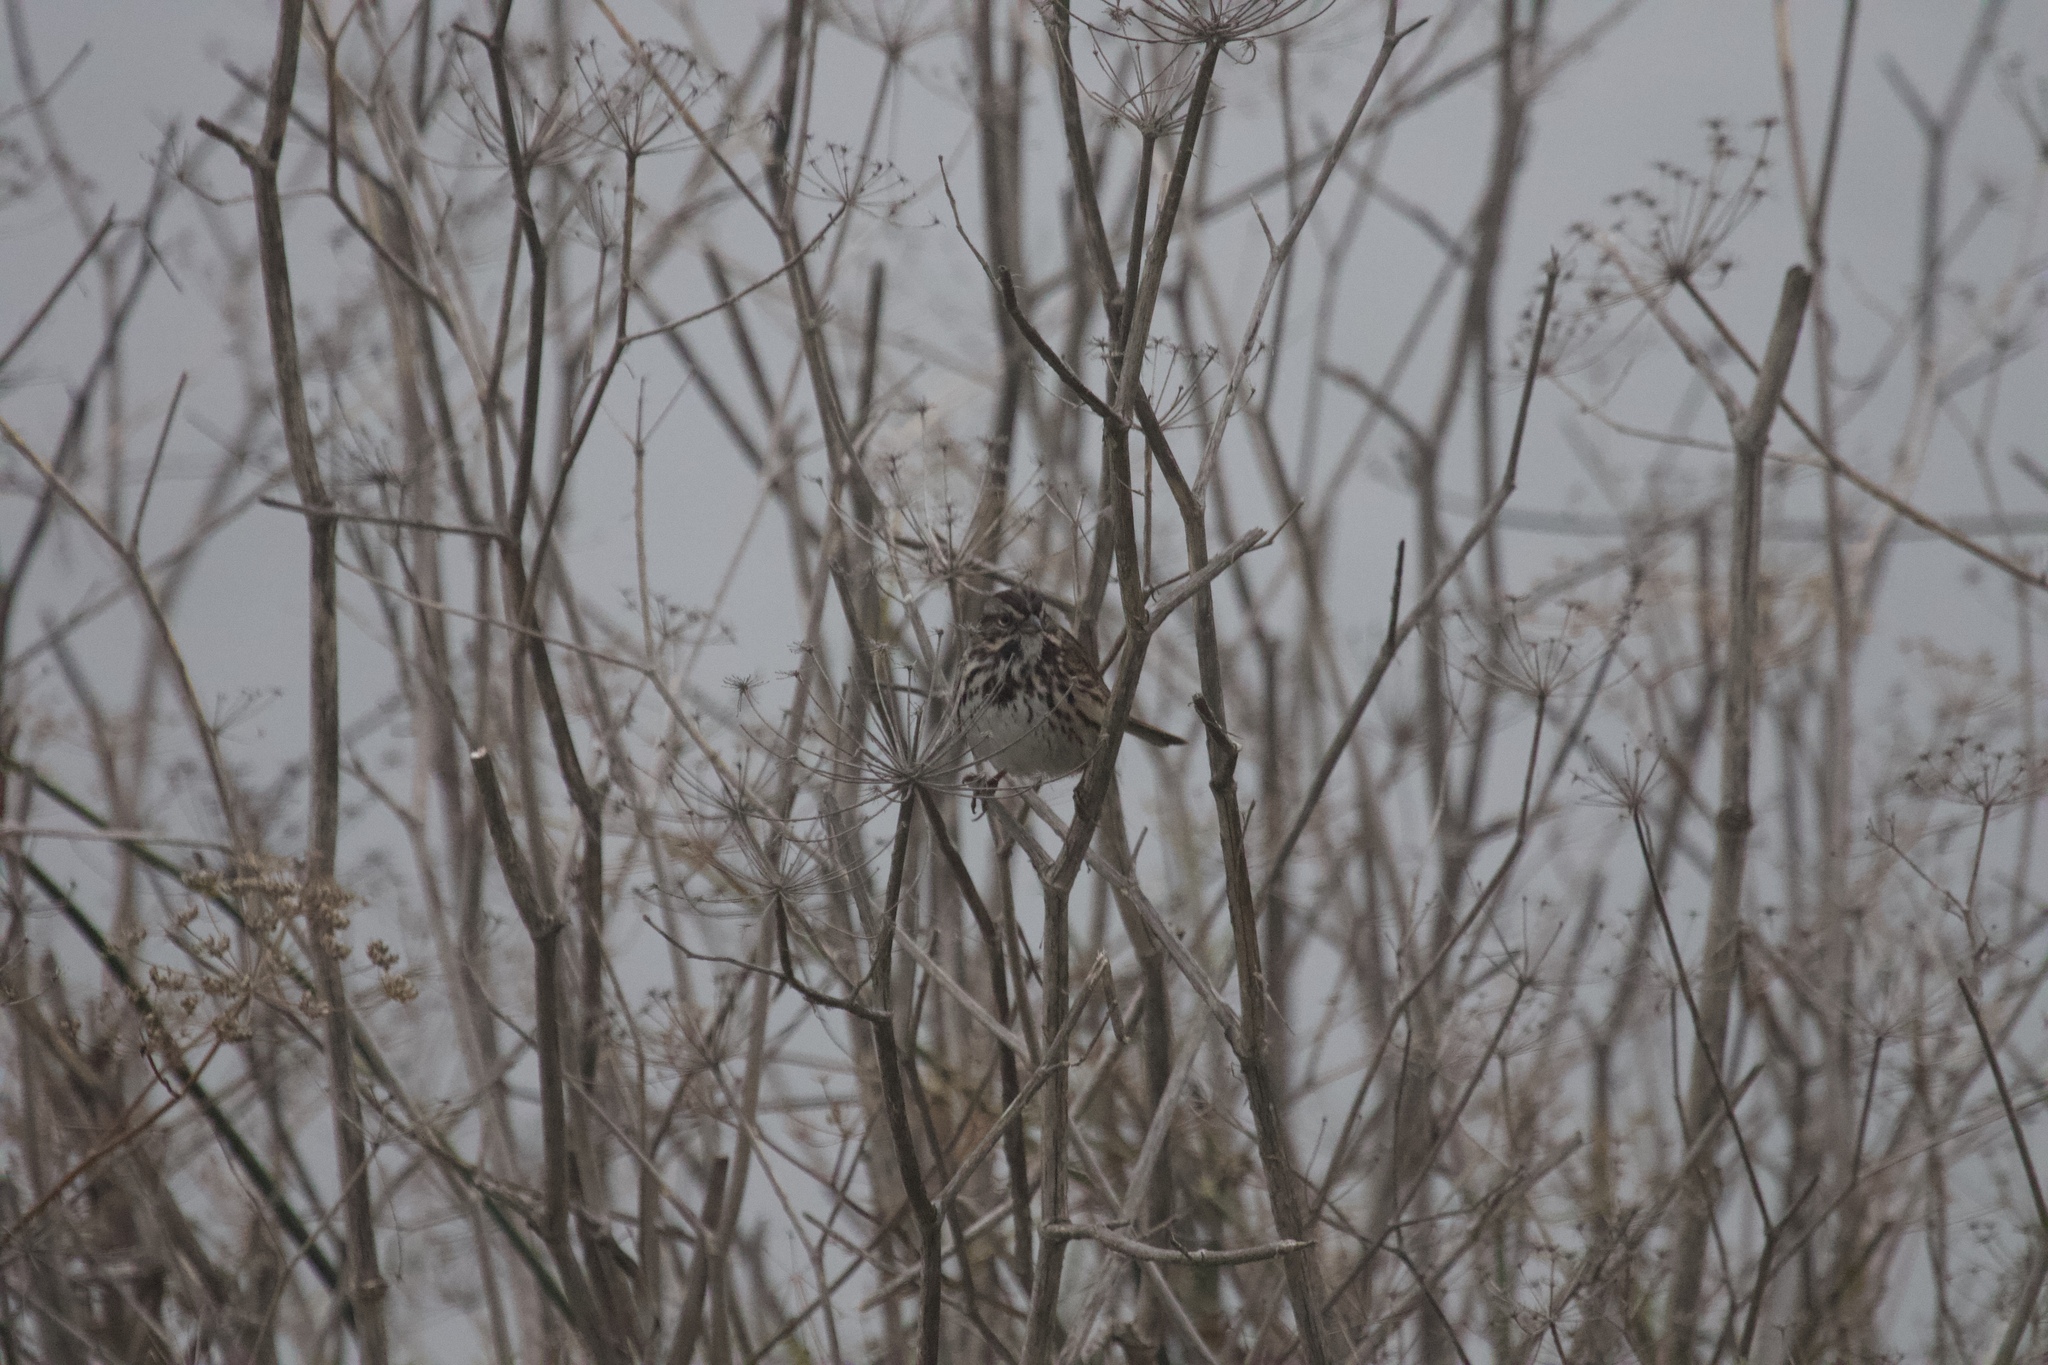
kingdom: Animalia
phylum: Chordata
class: Aves
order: Passeriformes
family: Passerellidae
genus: Melospiza
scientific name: Melospiza melodia
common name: Song sparrow
